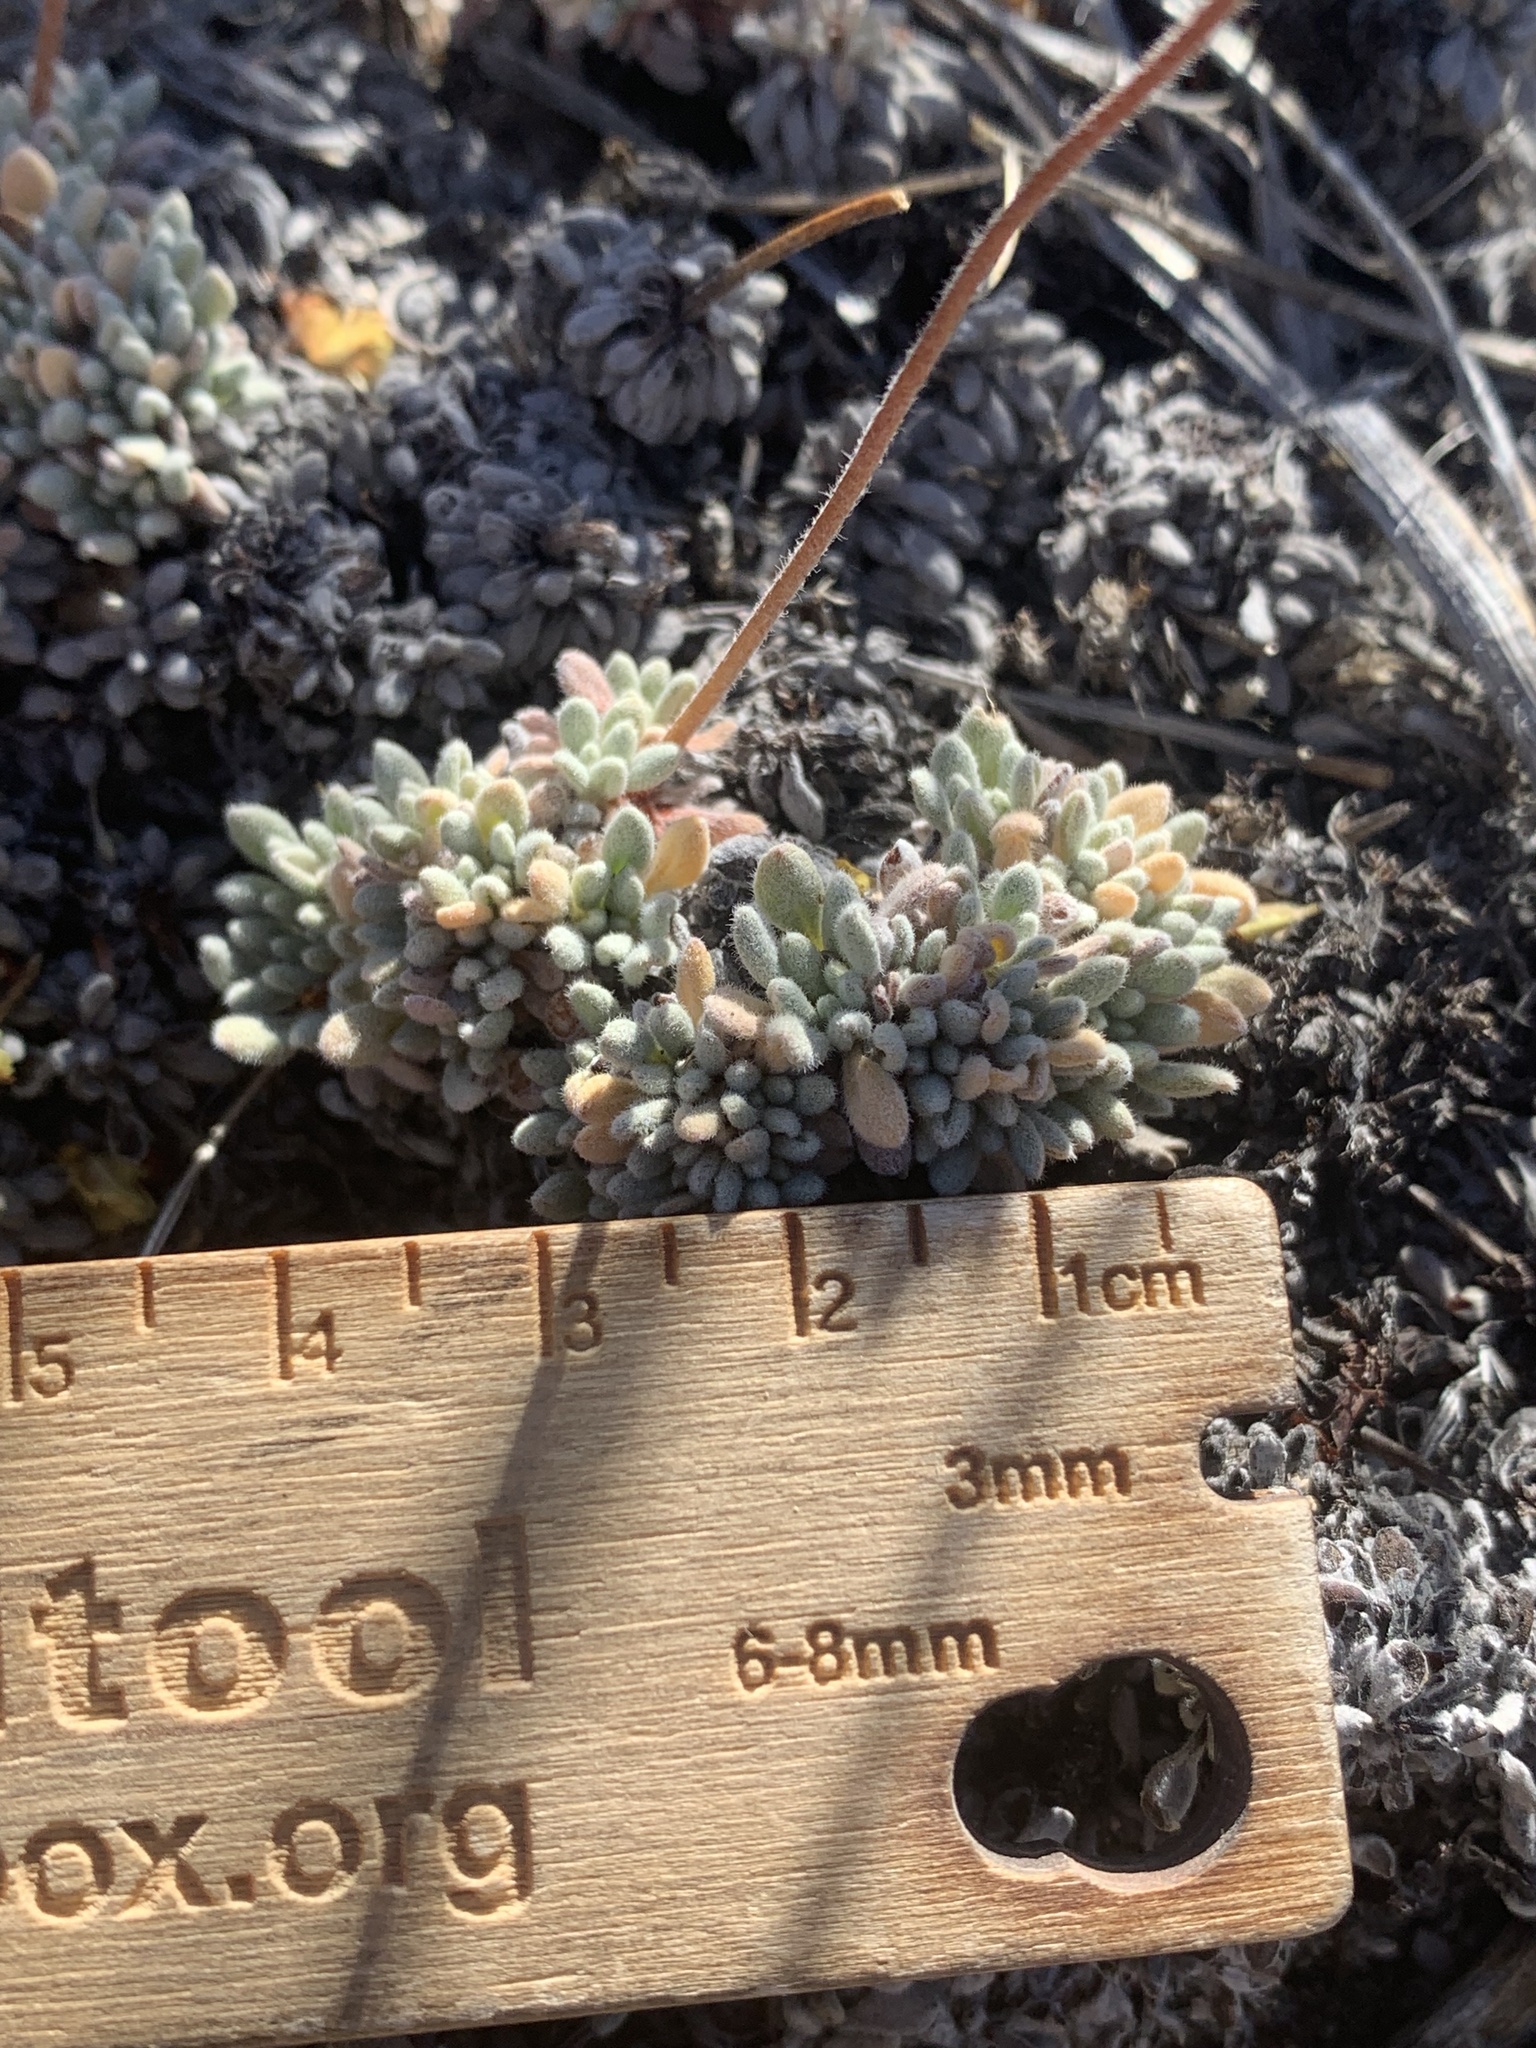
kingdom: Plantae
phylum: Tracheophyta
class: Magnoliopsida
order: Caryophyllales
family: Polygonaceae
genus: Eriogonum
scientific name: Eriogonum caespitosum
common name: Matted wild buckwheat
